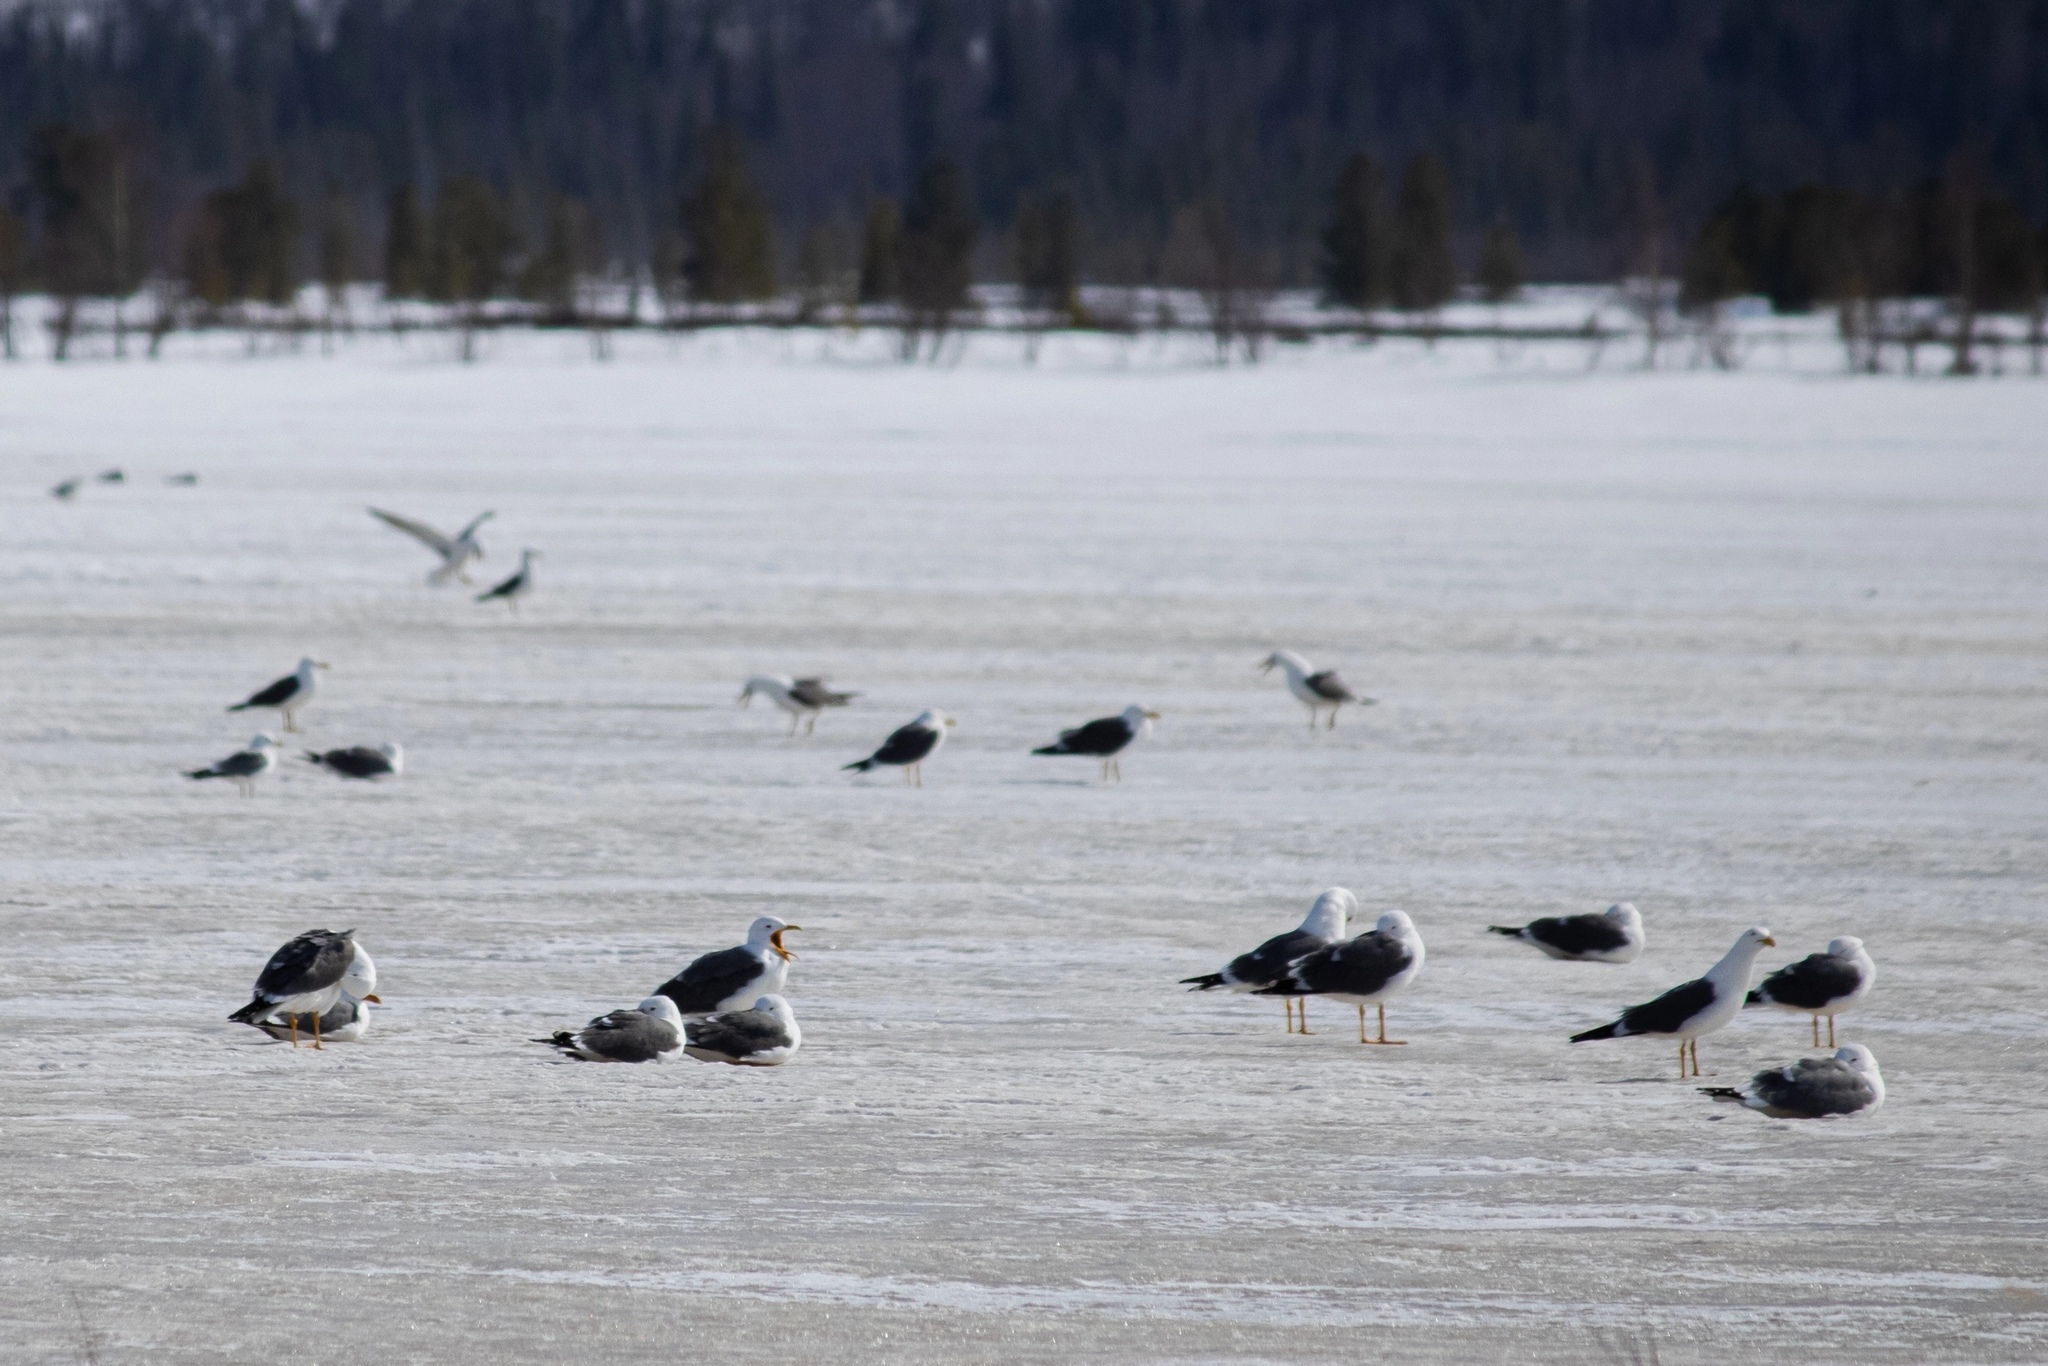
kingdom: Animalia
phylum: Chordata
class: Aves
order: Charadriiformes
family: Laridae
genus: Larus
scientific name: Larus fuscus
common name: Lesser black-backed gull
